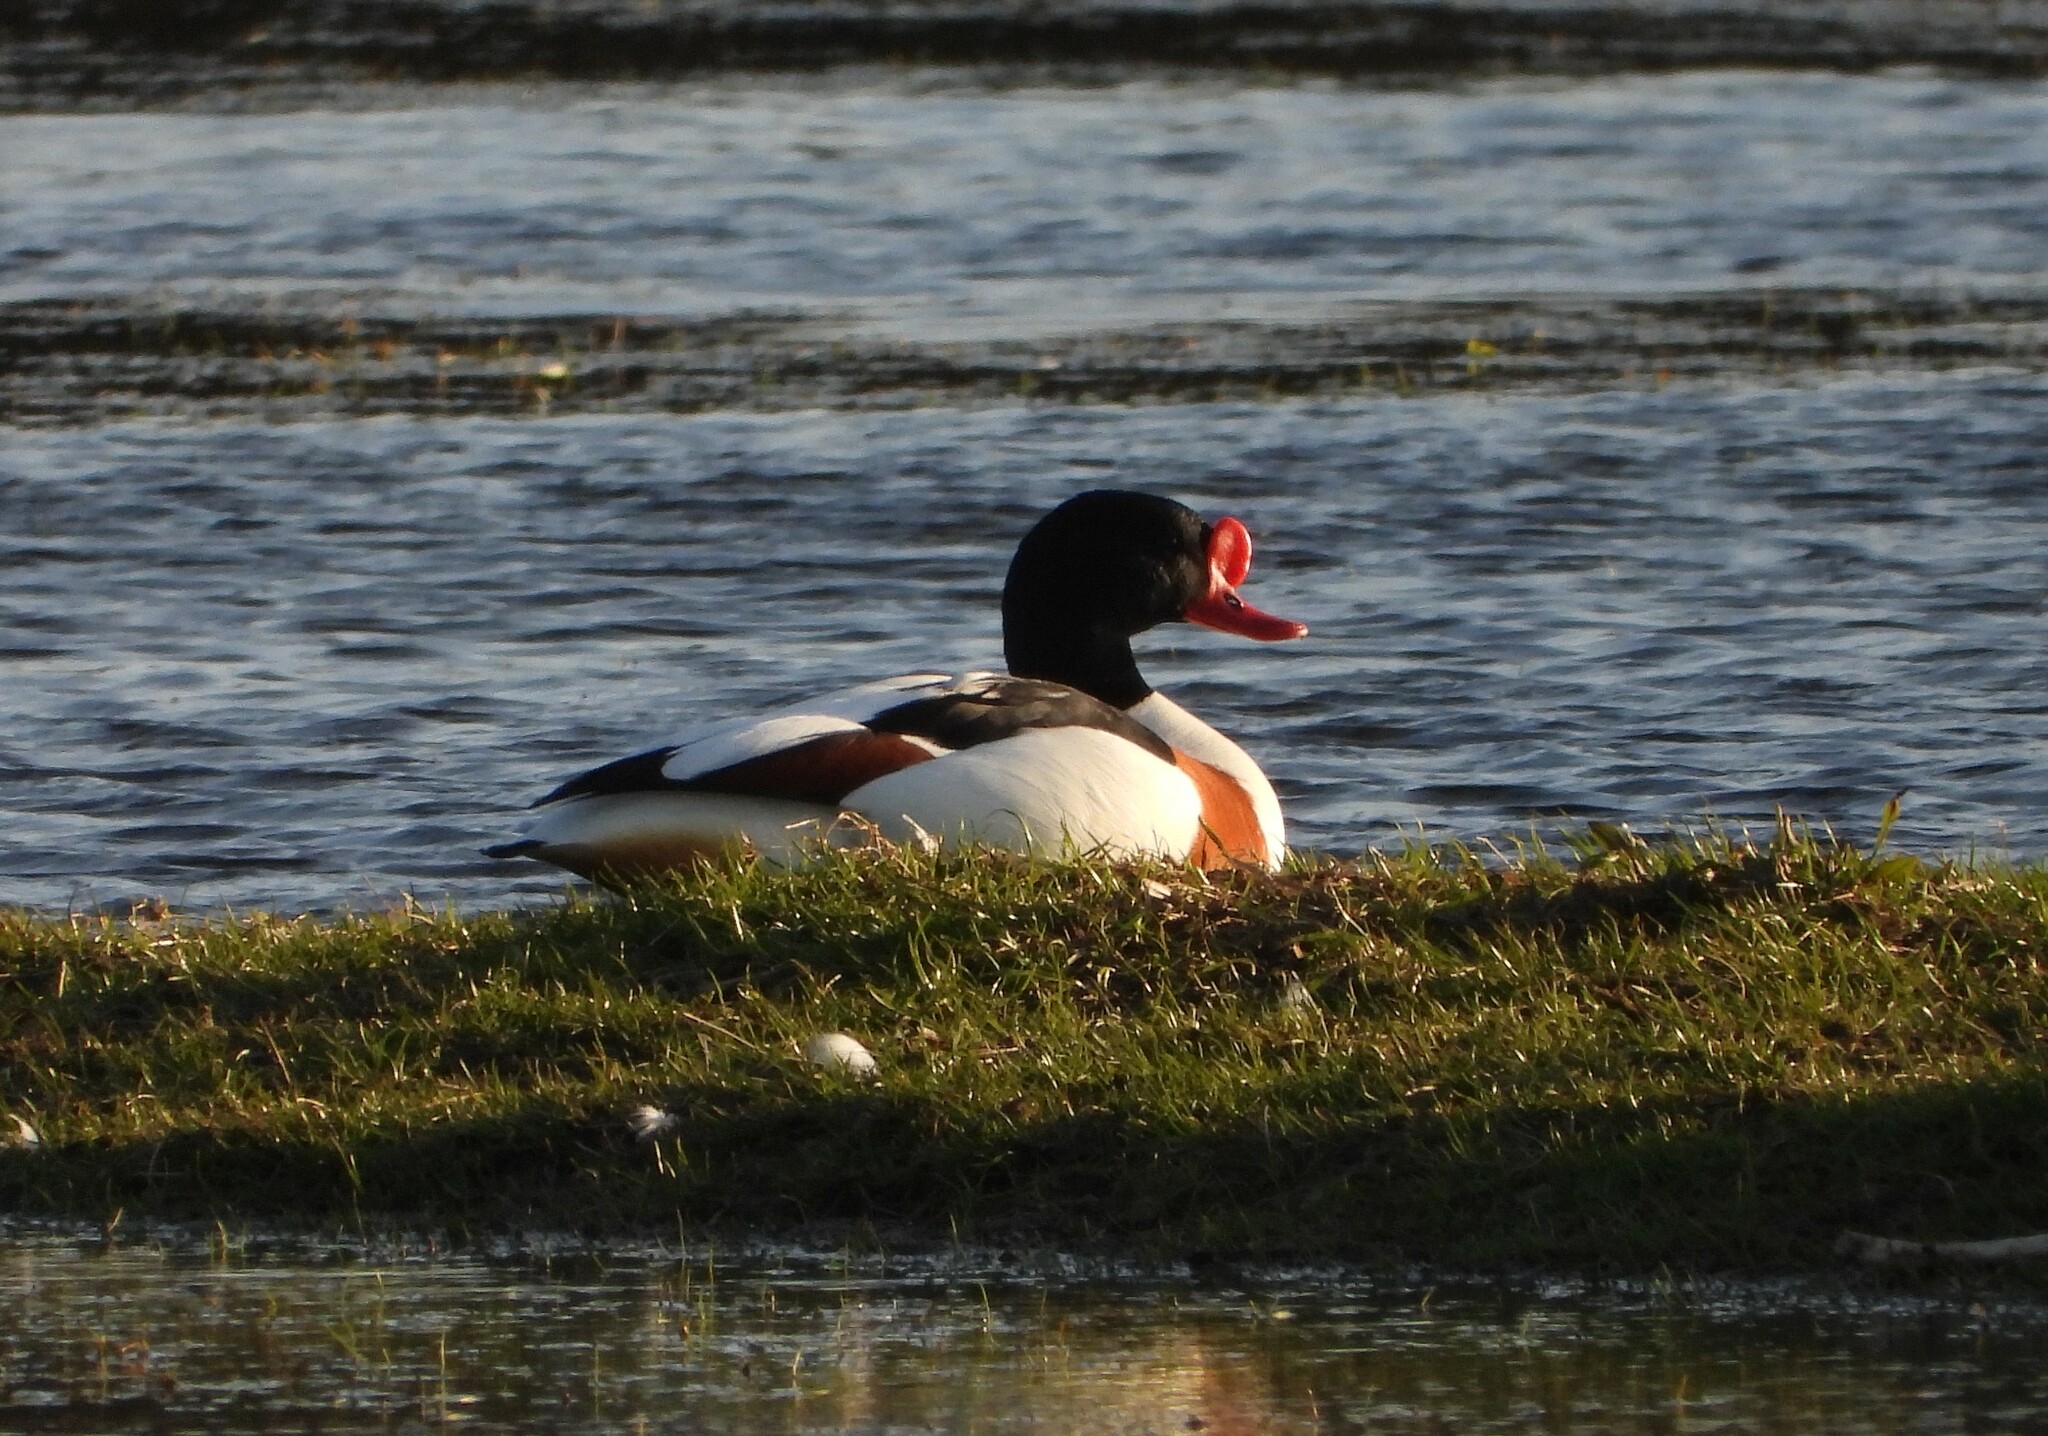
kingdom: Animalia
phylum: Chordata
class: Aves
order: Anseriformes
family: Anatidae
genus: Tadorna
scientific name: Tadorna tadorna
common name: Common shelduck
